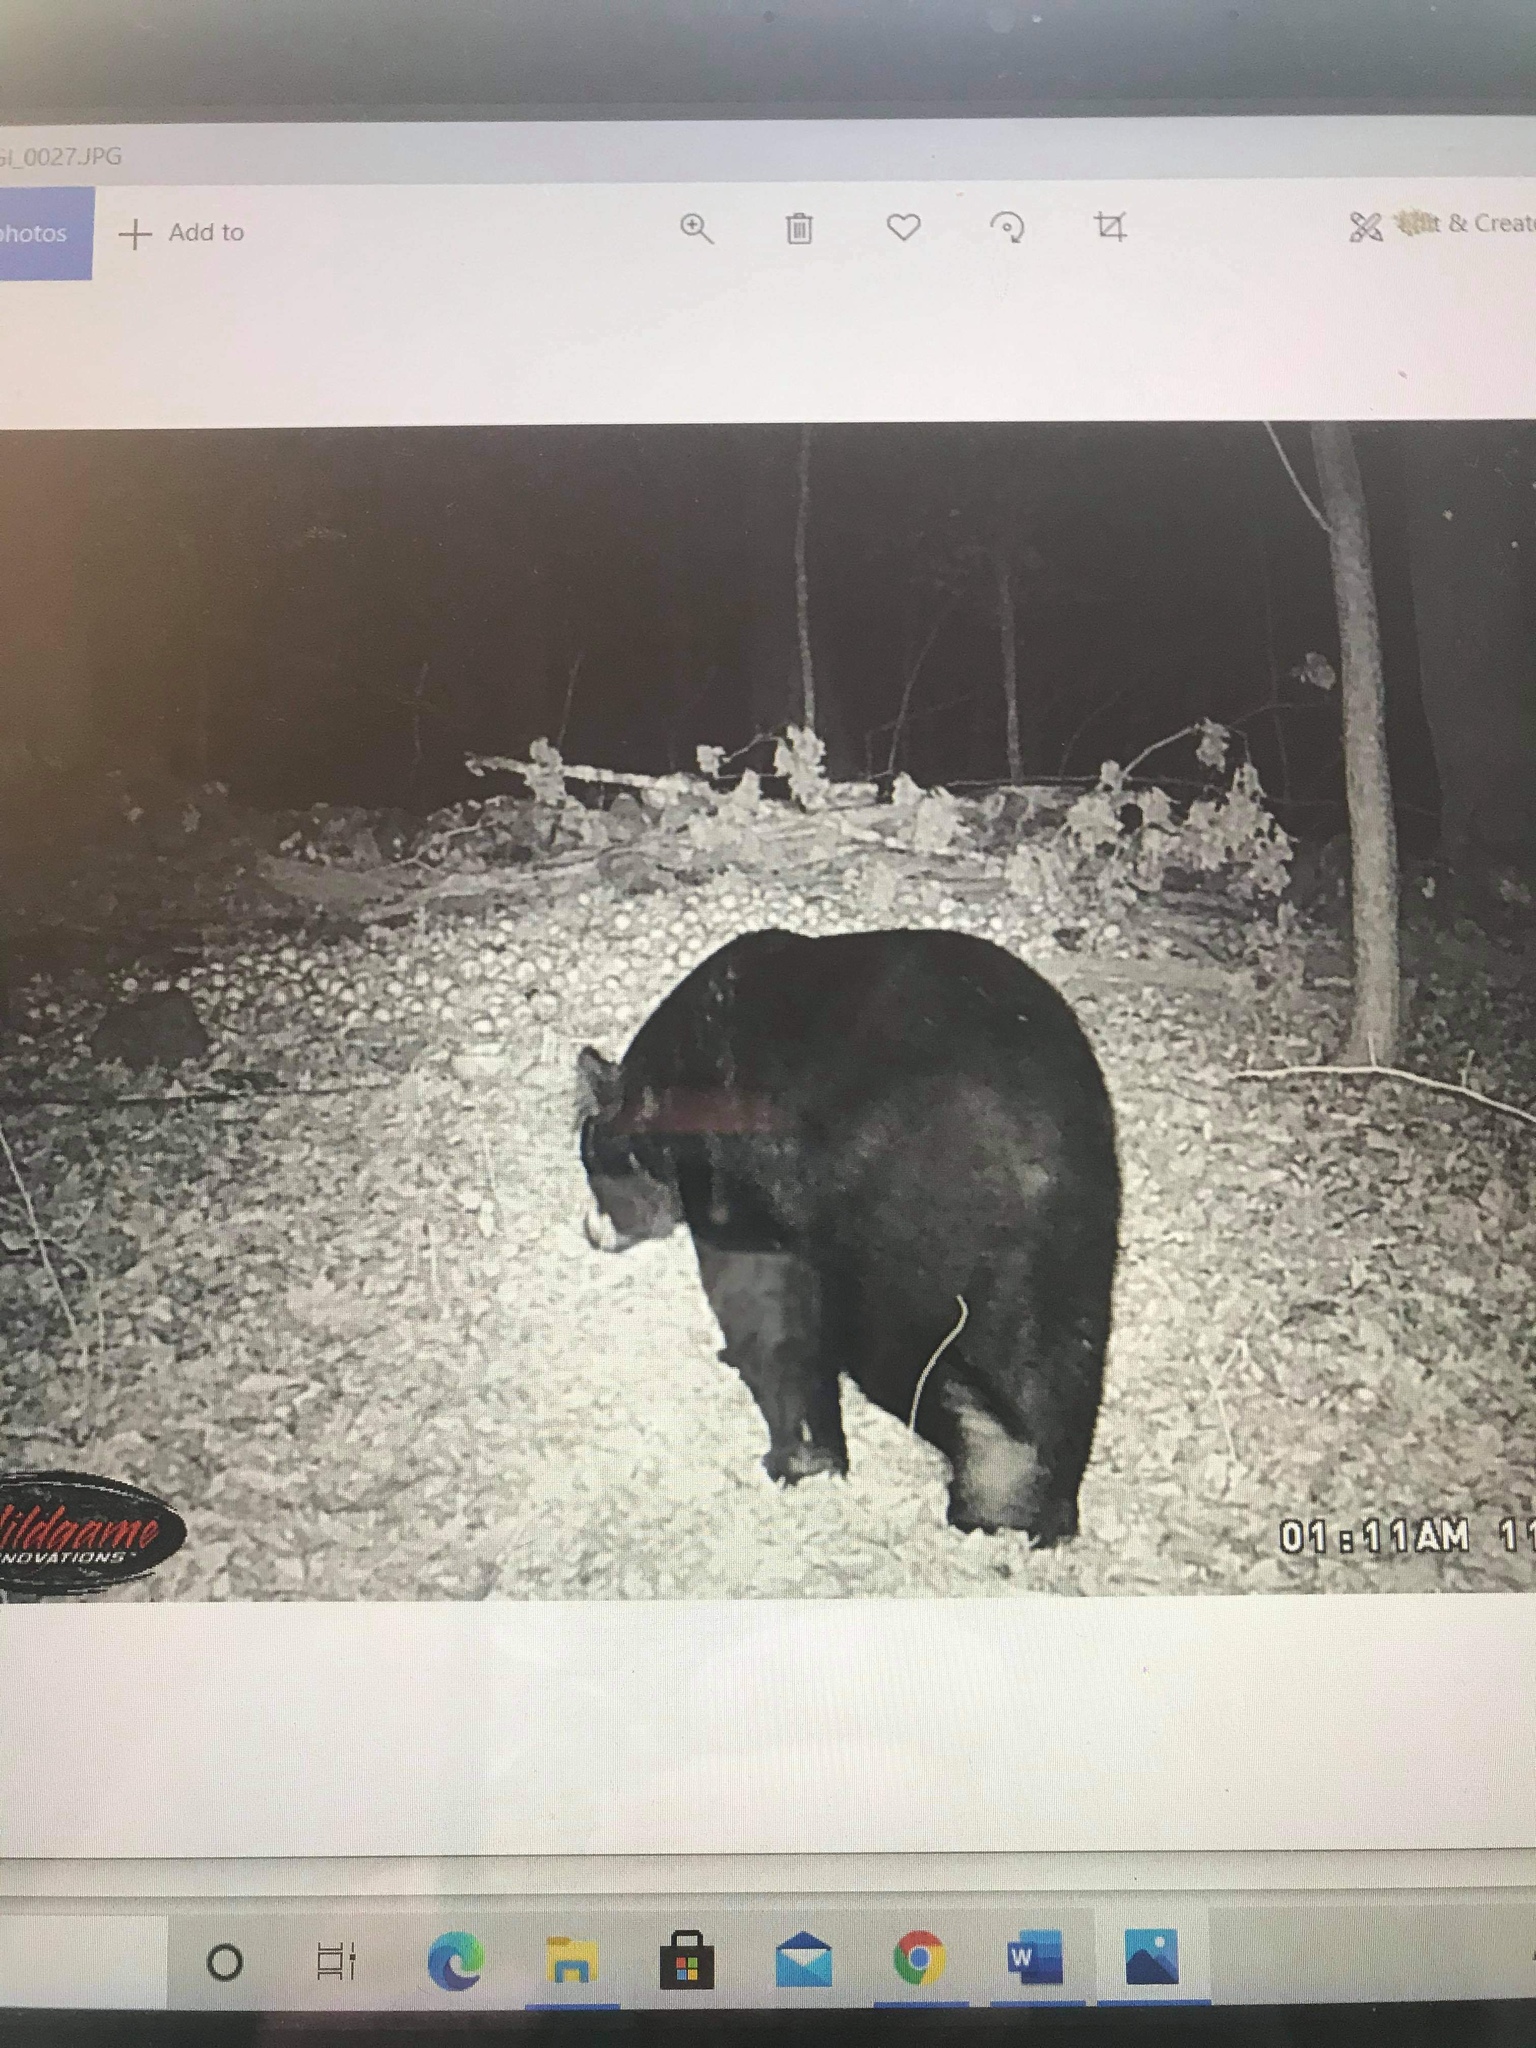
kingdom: Animalia
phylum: Chordata
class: Mammalia
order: Carnivora
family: Ursidae
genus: Ursus
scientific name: Ursus americanus
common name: American black bear
